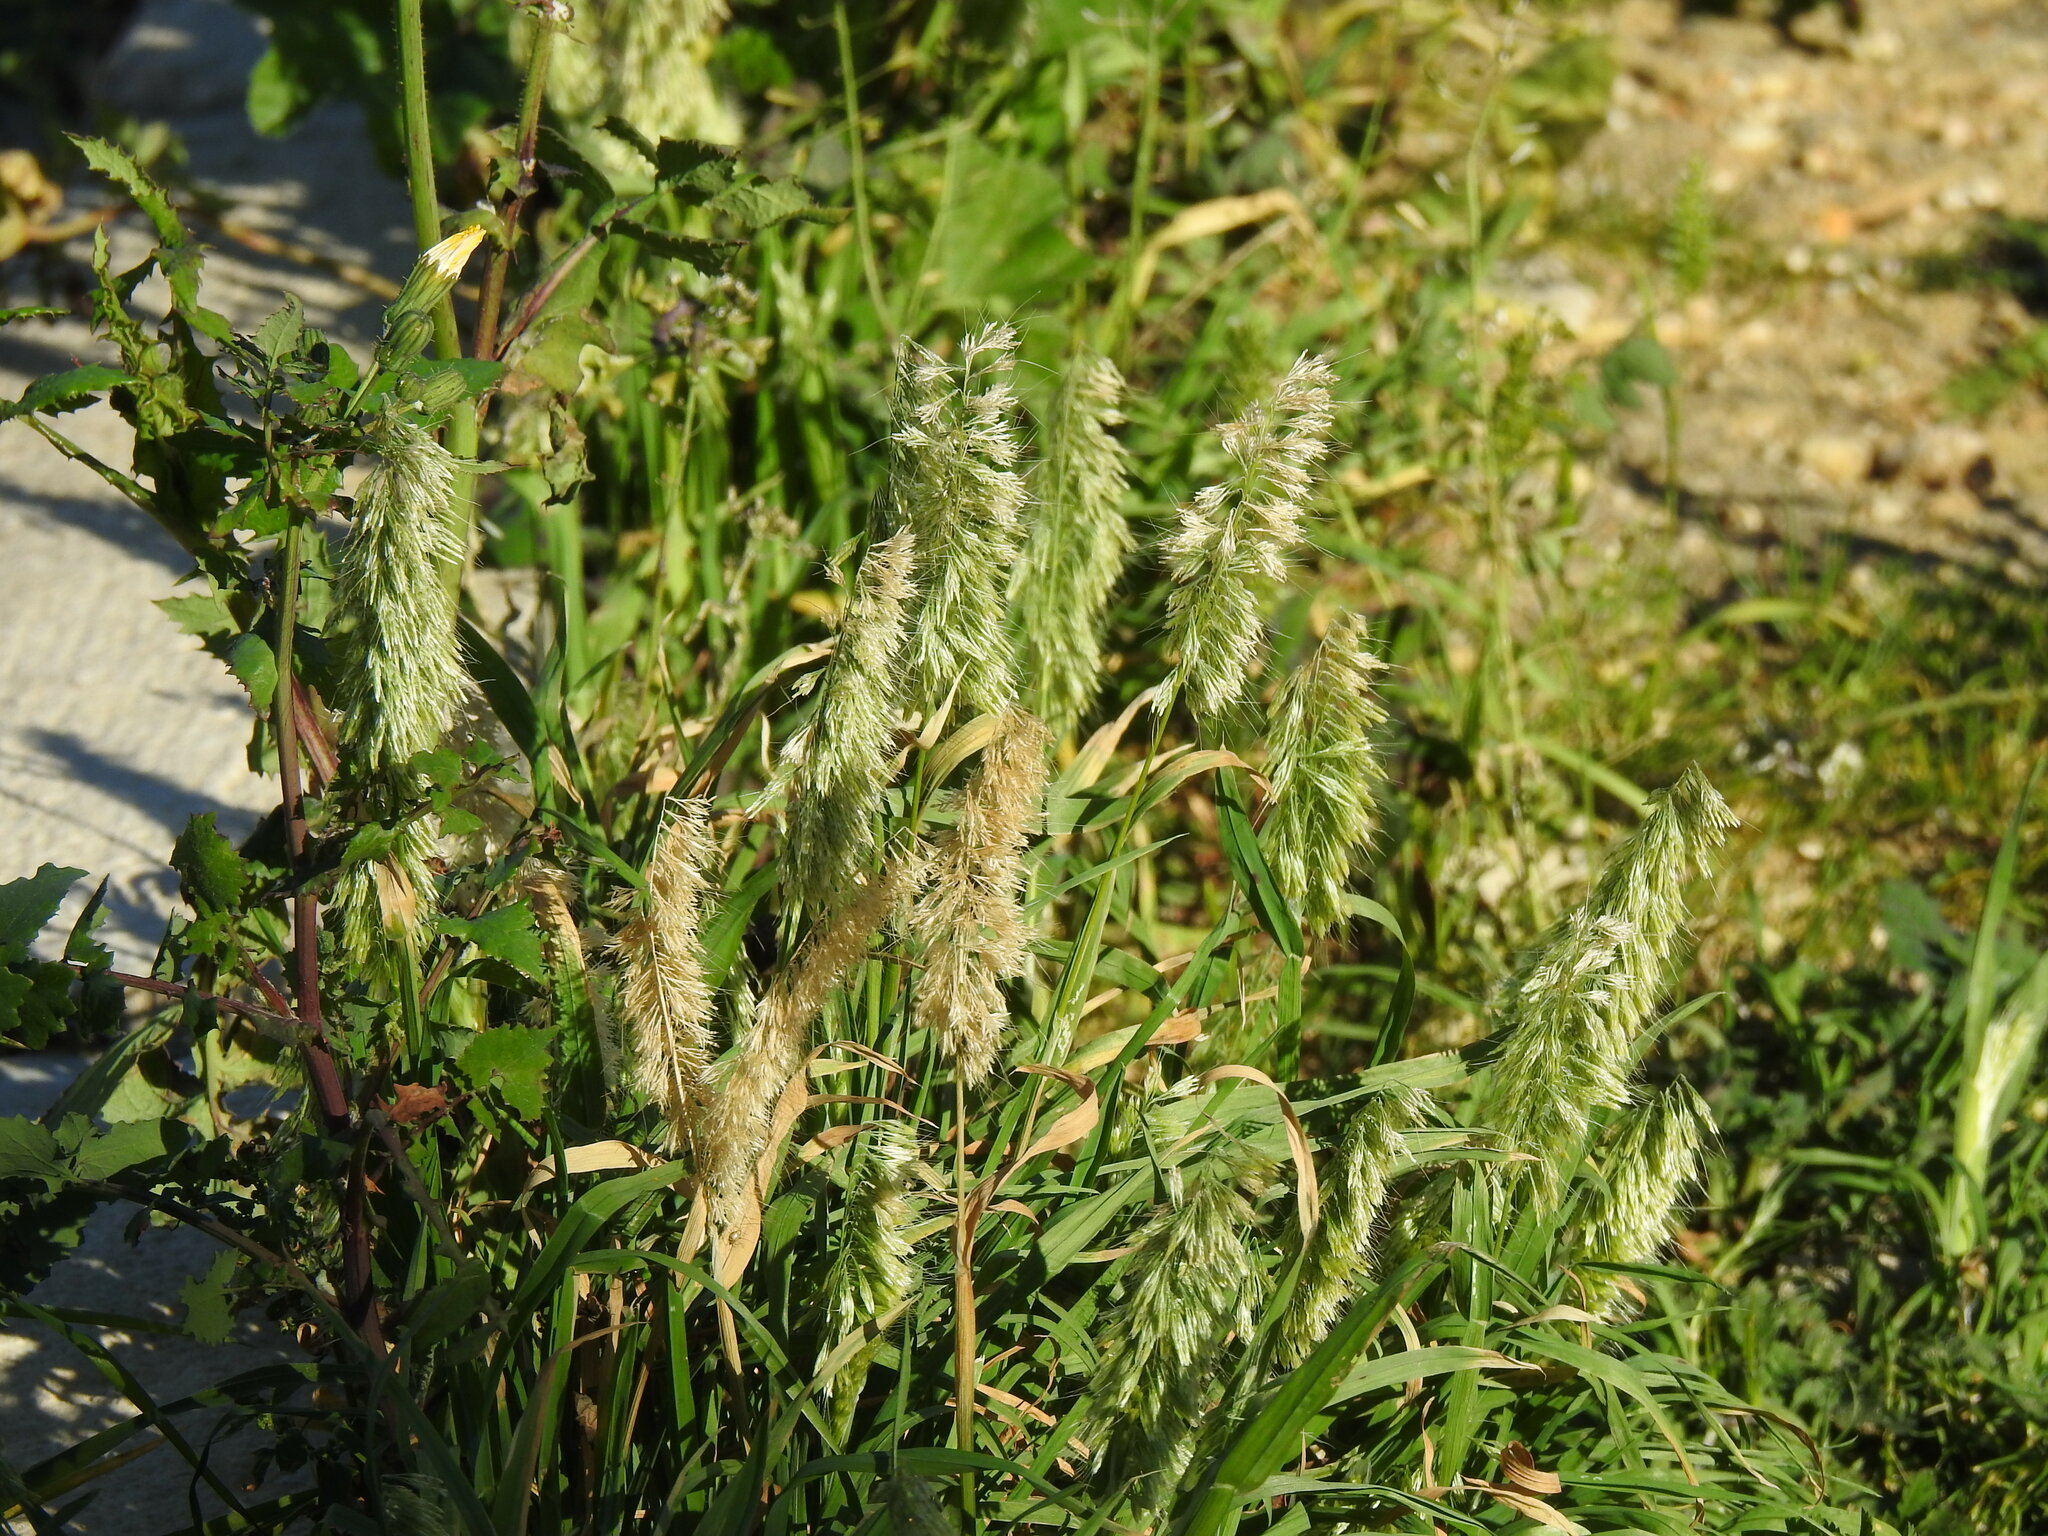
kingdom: Plantae
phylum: Tracheophyta
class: Liliopsida
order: Poales
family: Poaceae
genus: Lamarckia
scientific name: Lamarckia aurea
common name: Golden dog's-tail
